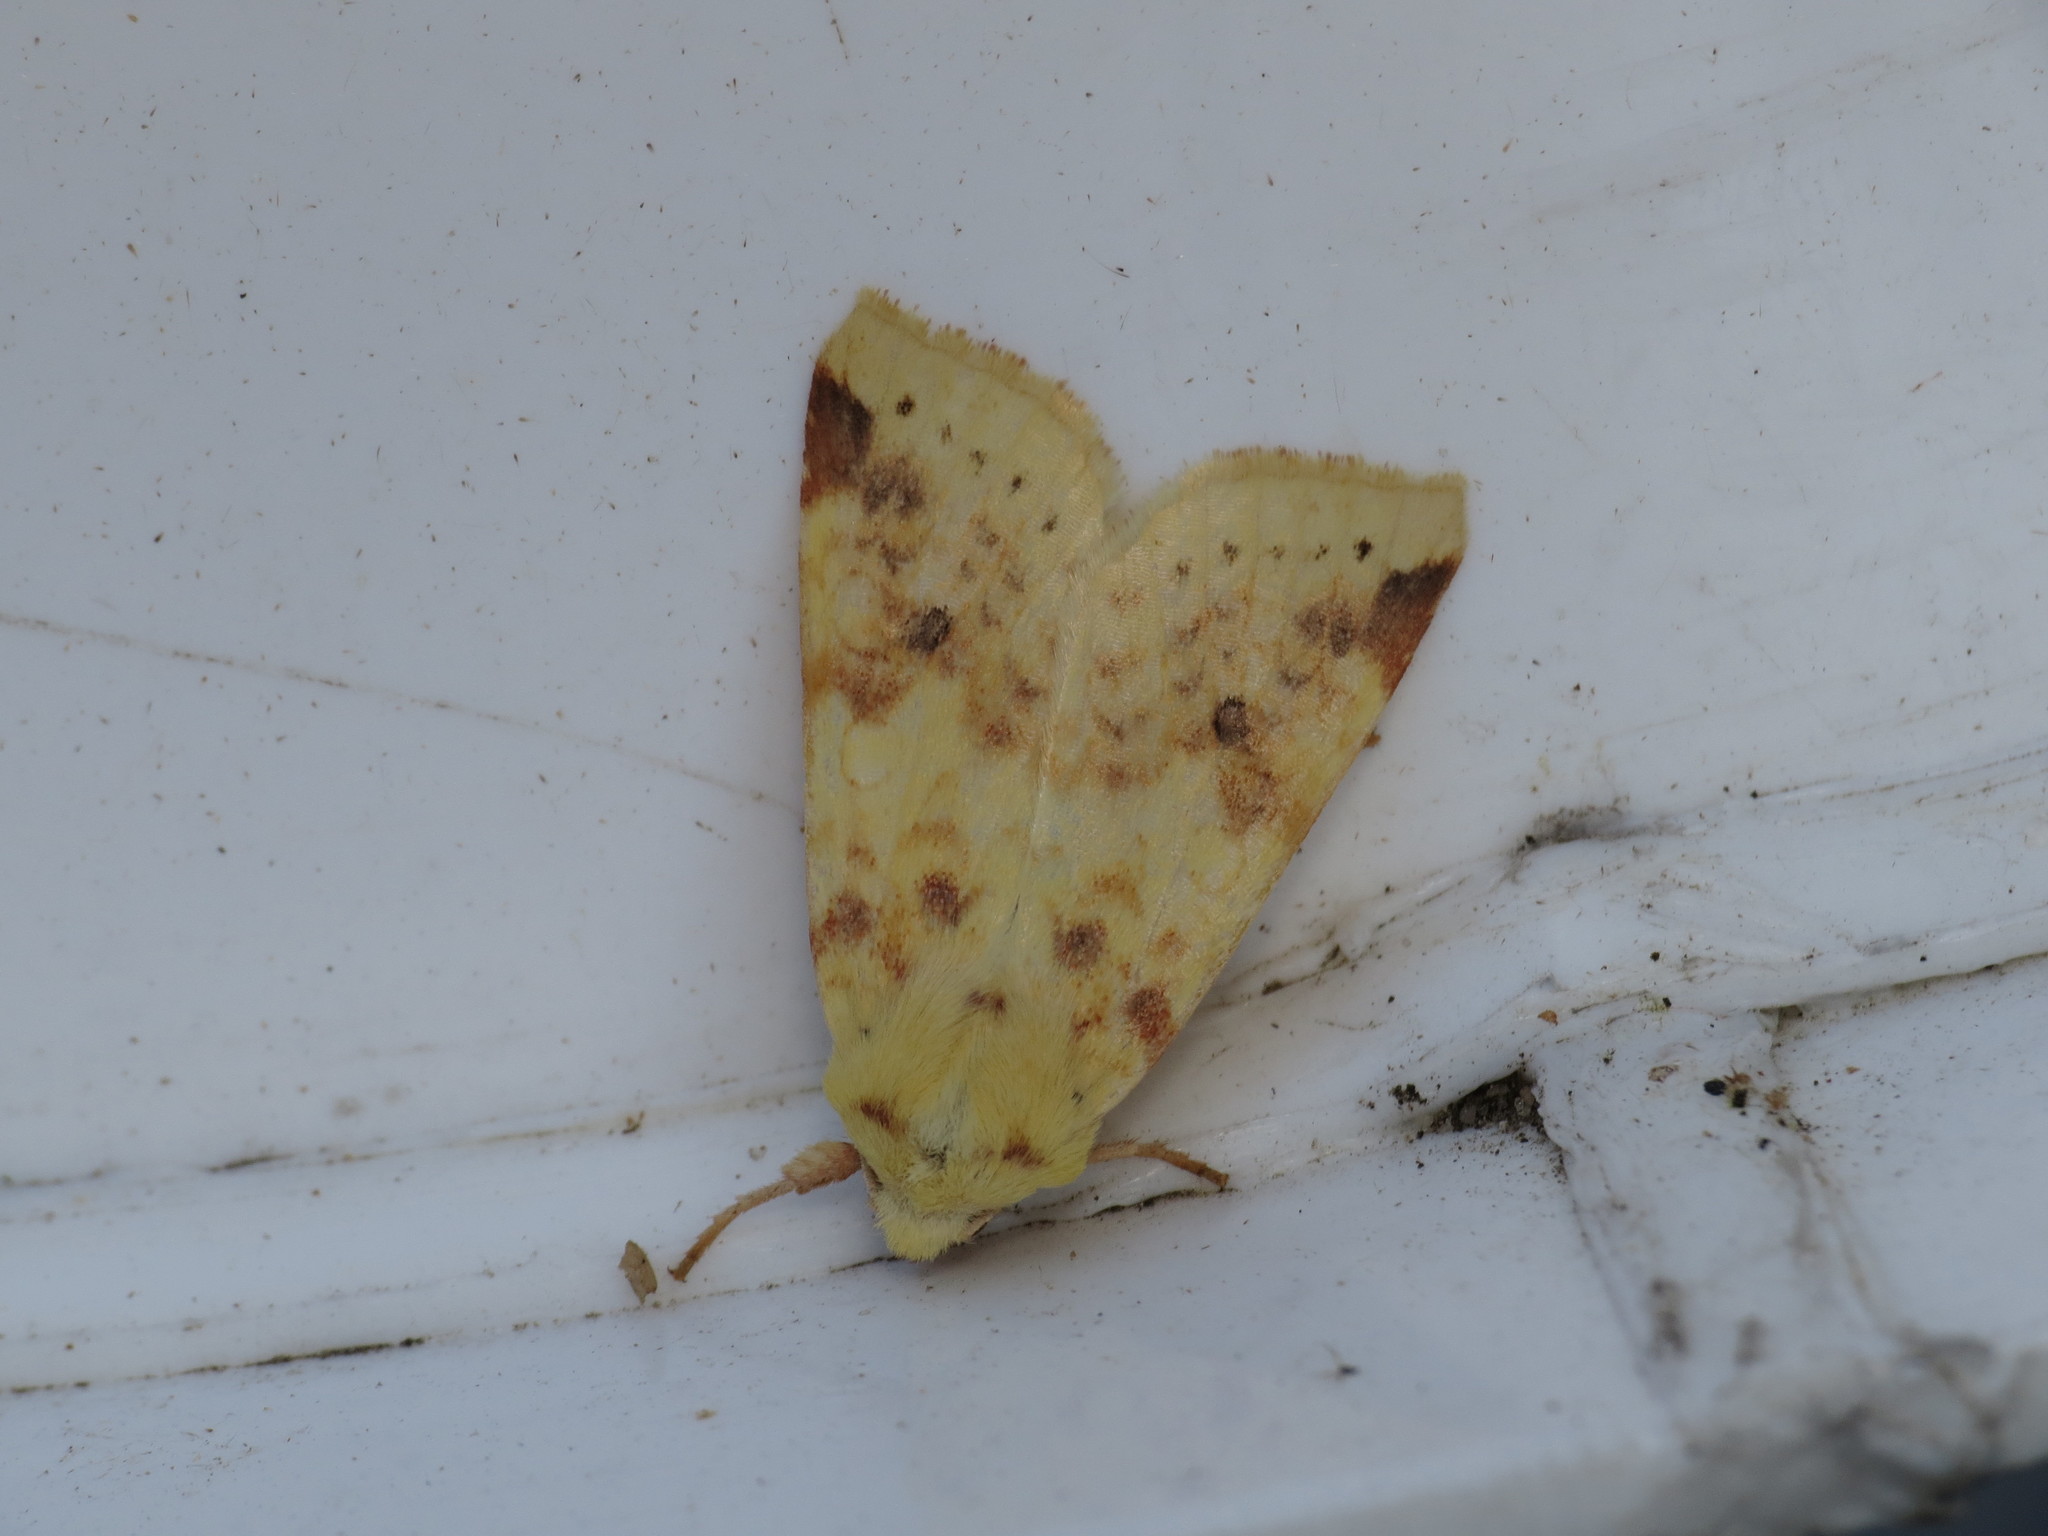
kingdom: Animalia
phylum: Arthropoda
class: Insecta
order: Lepidoptera
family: Noctuidae
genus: Xanthia
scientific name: Xanthia icteritia
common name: The sallow
